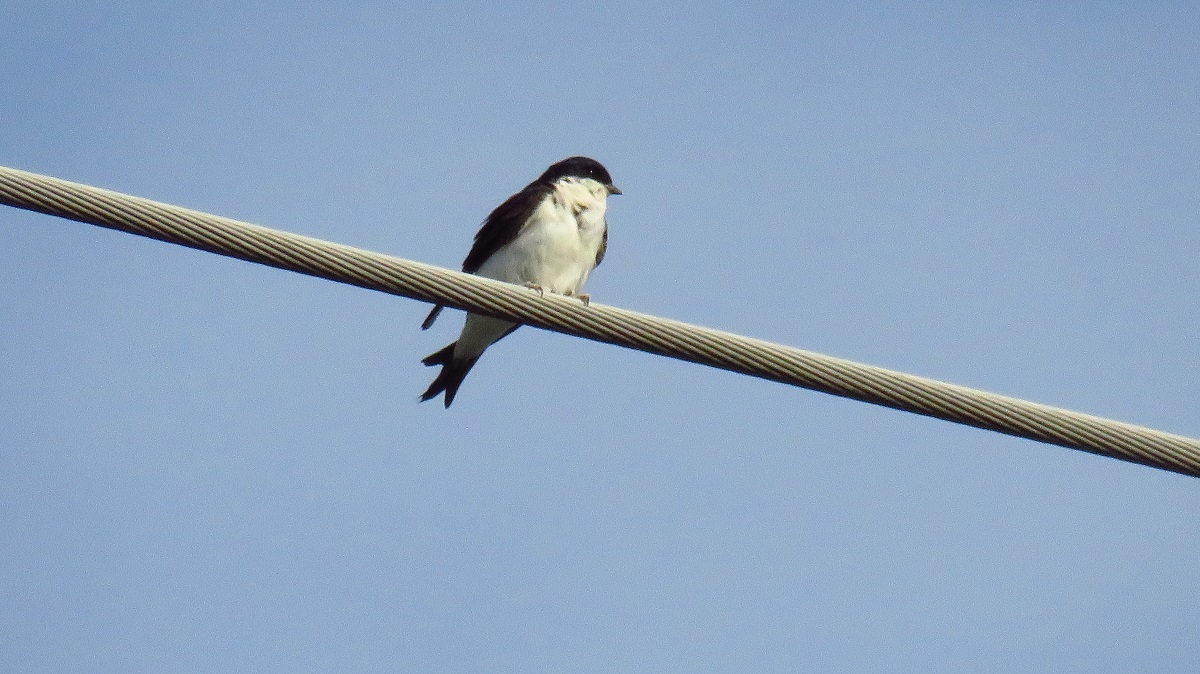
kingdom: Animalia
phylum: Chordata
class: Aves
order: Passeriformes
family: Hirundinidae
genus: Delichon
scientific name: Delichon urbicum
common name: Common house martin
